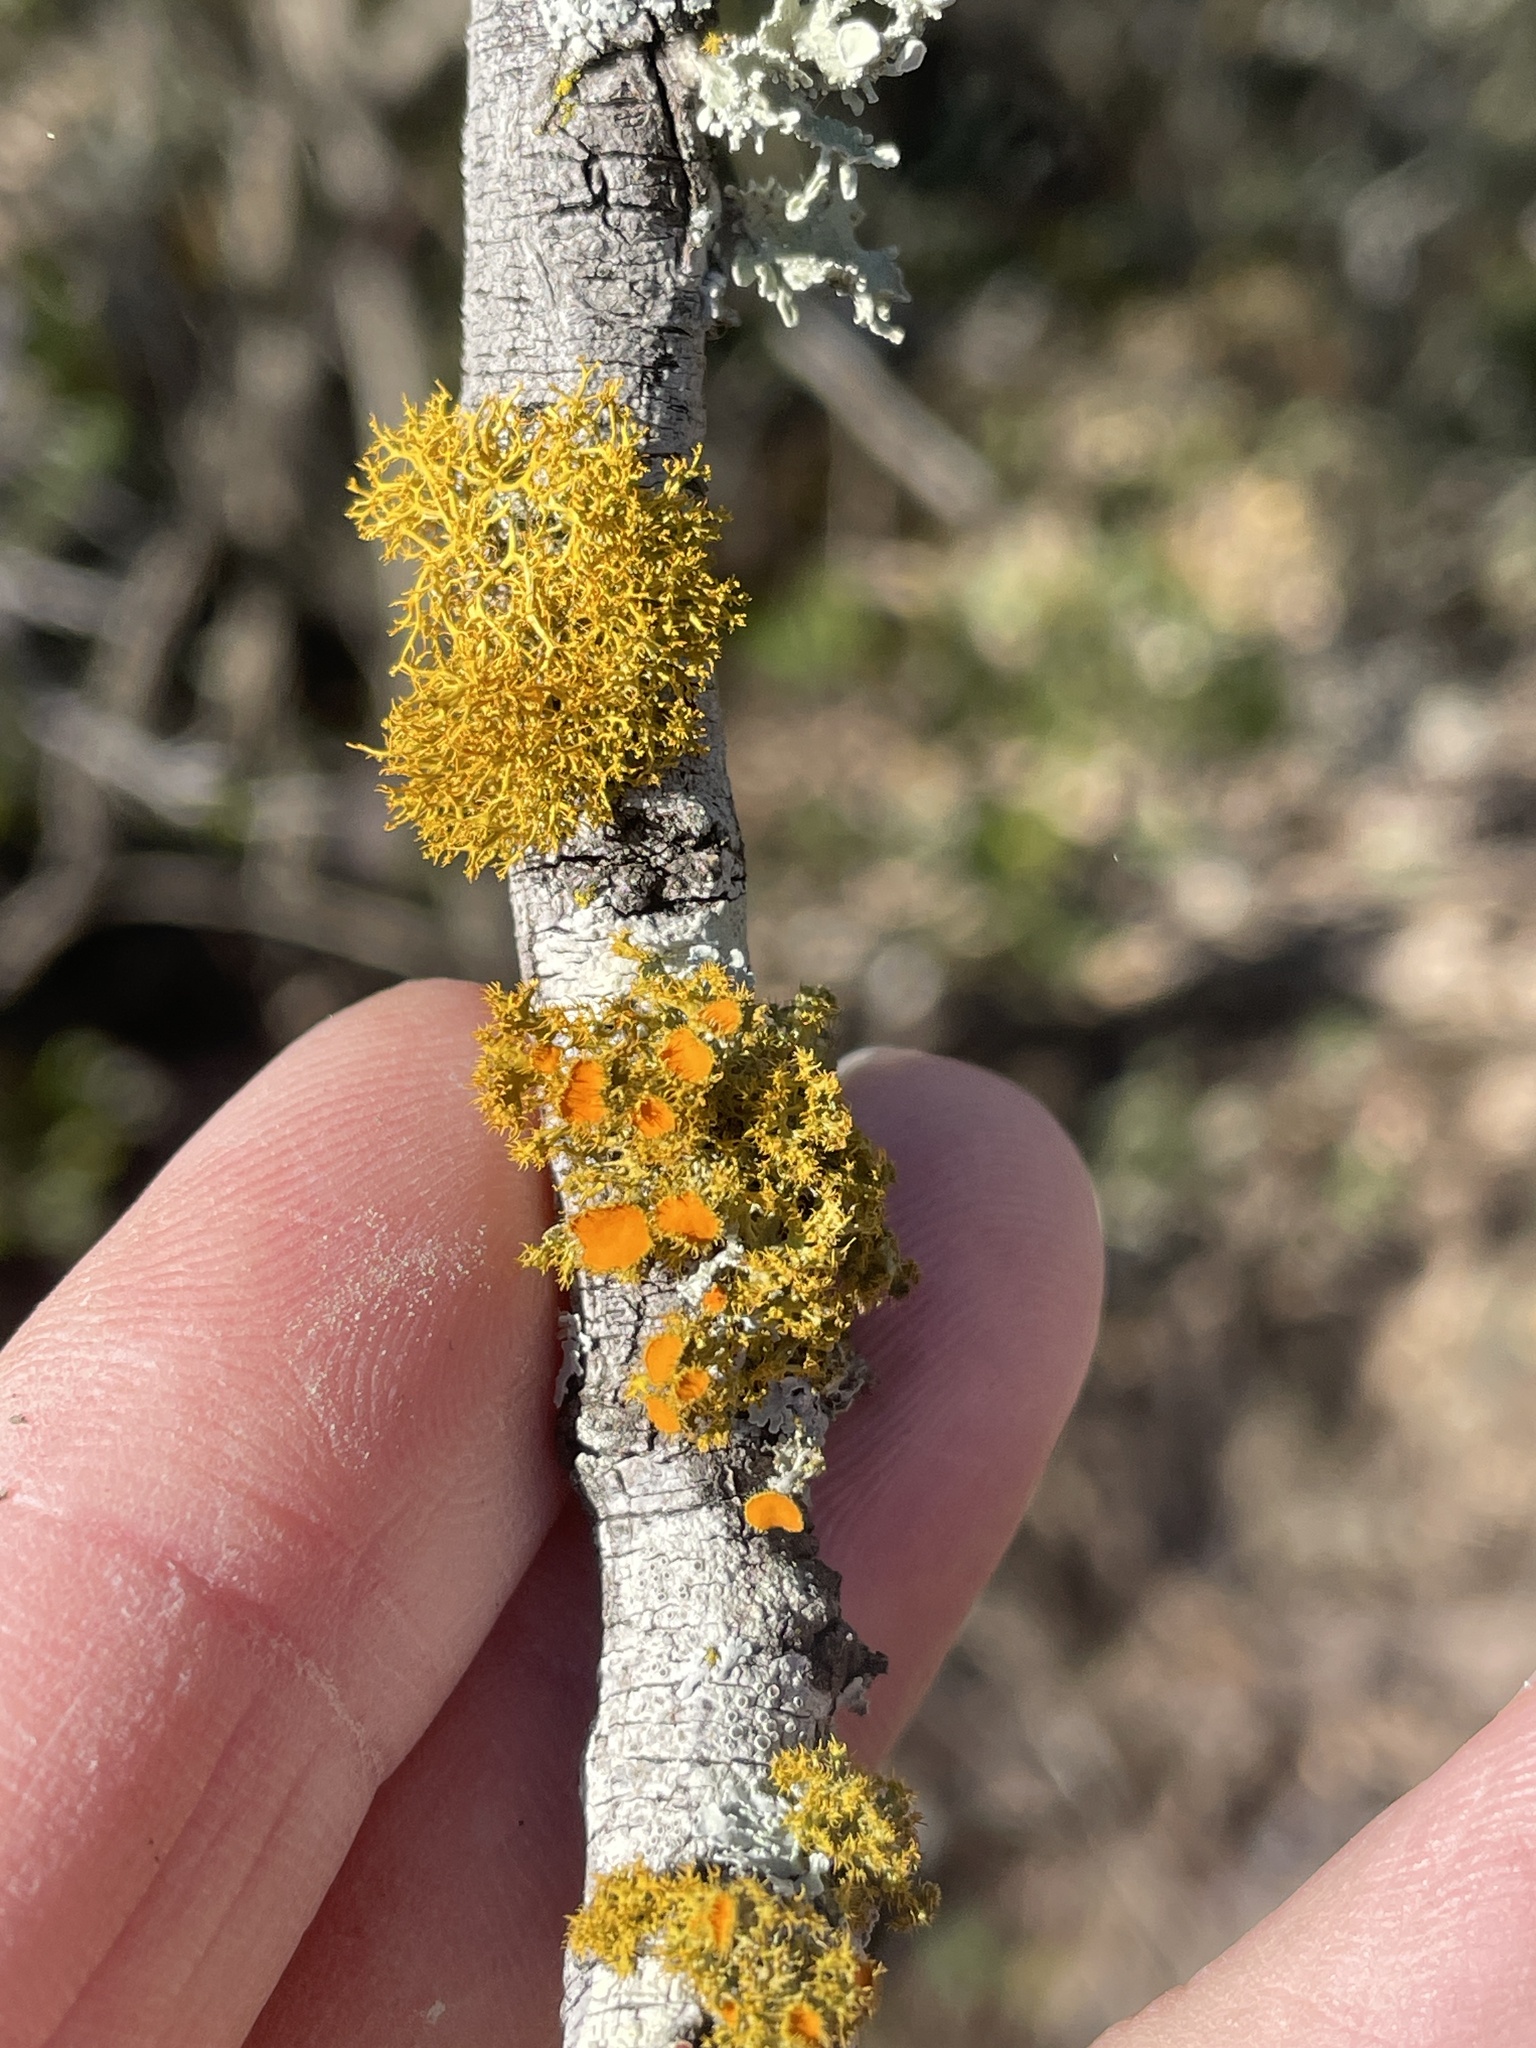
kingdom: Fungi
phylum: Ascomycota
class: Lecanoromycetes
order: Teloschistales
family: Teloschistaceae
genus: Niorma
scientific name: Niorma chrysophthalma
